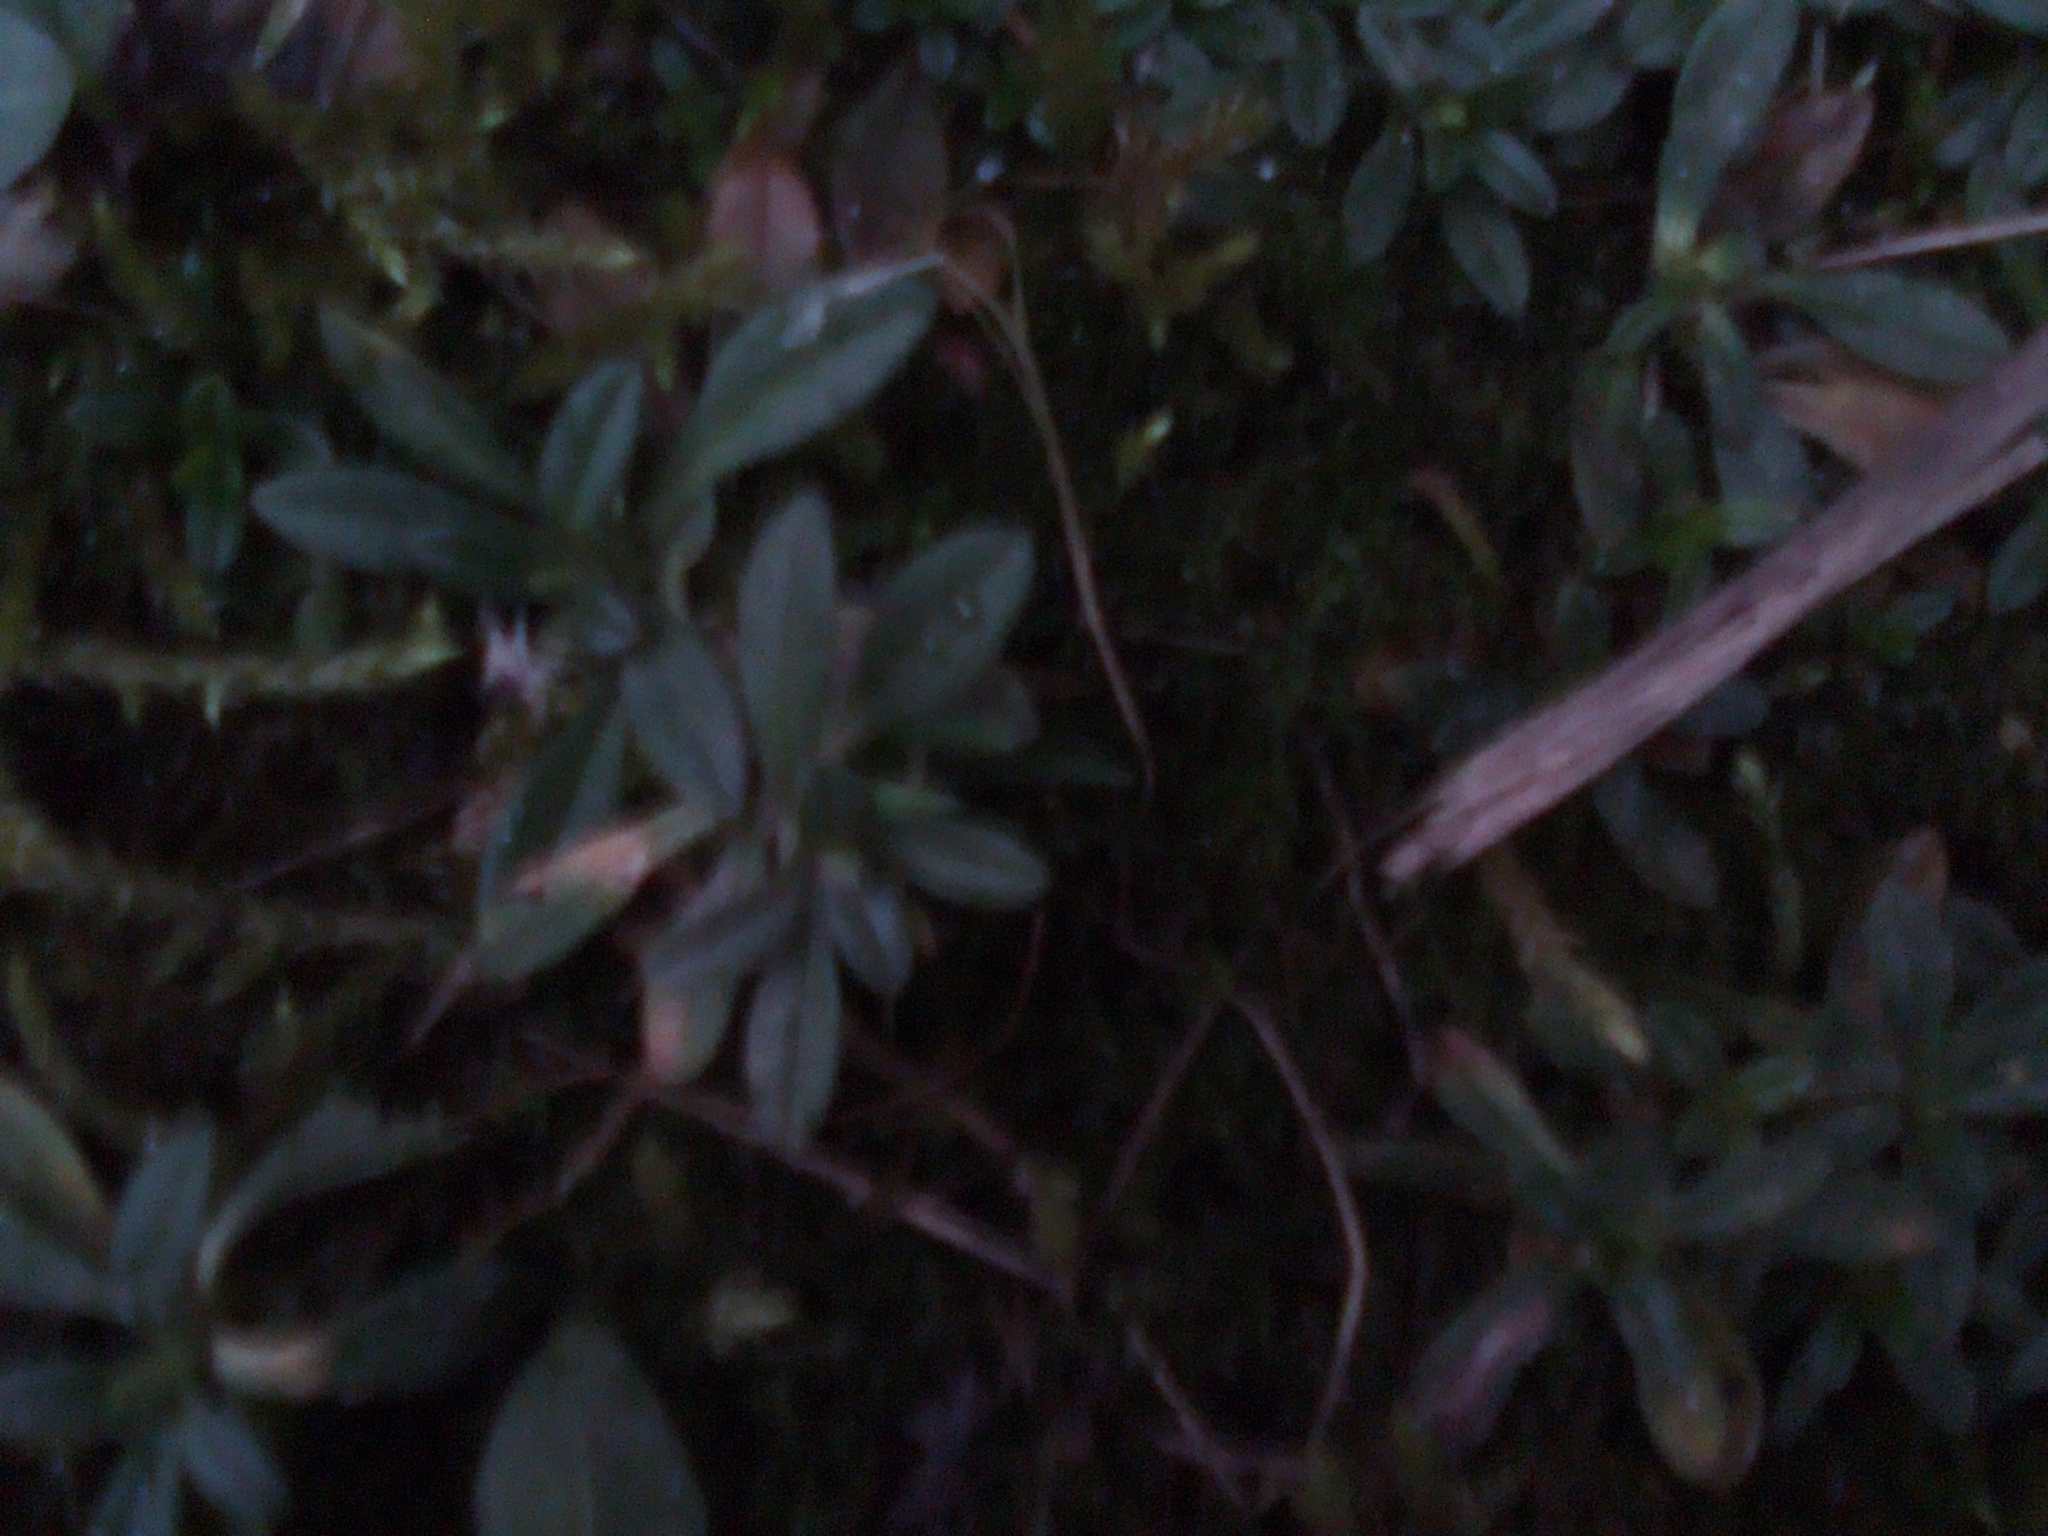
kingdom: Plantae
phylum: Tracheophyta
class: Magnoliopsida
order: Caryophyllales
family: Caryophyllaceae
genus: Cerastium
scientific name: Cerastium holosteoides
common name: Big chickweed
